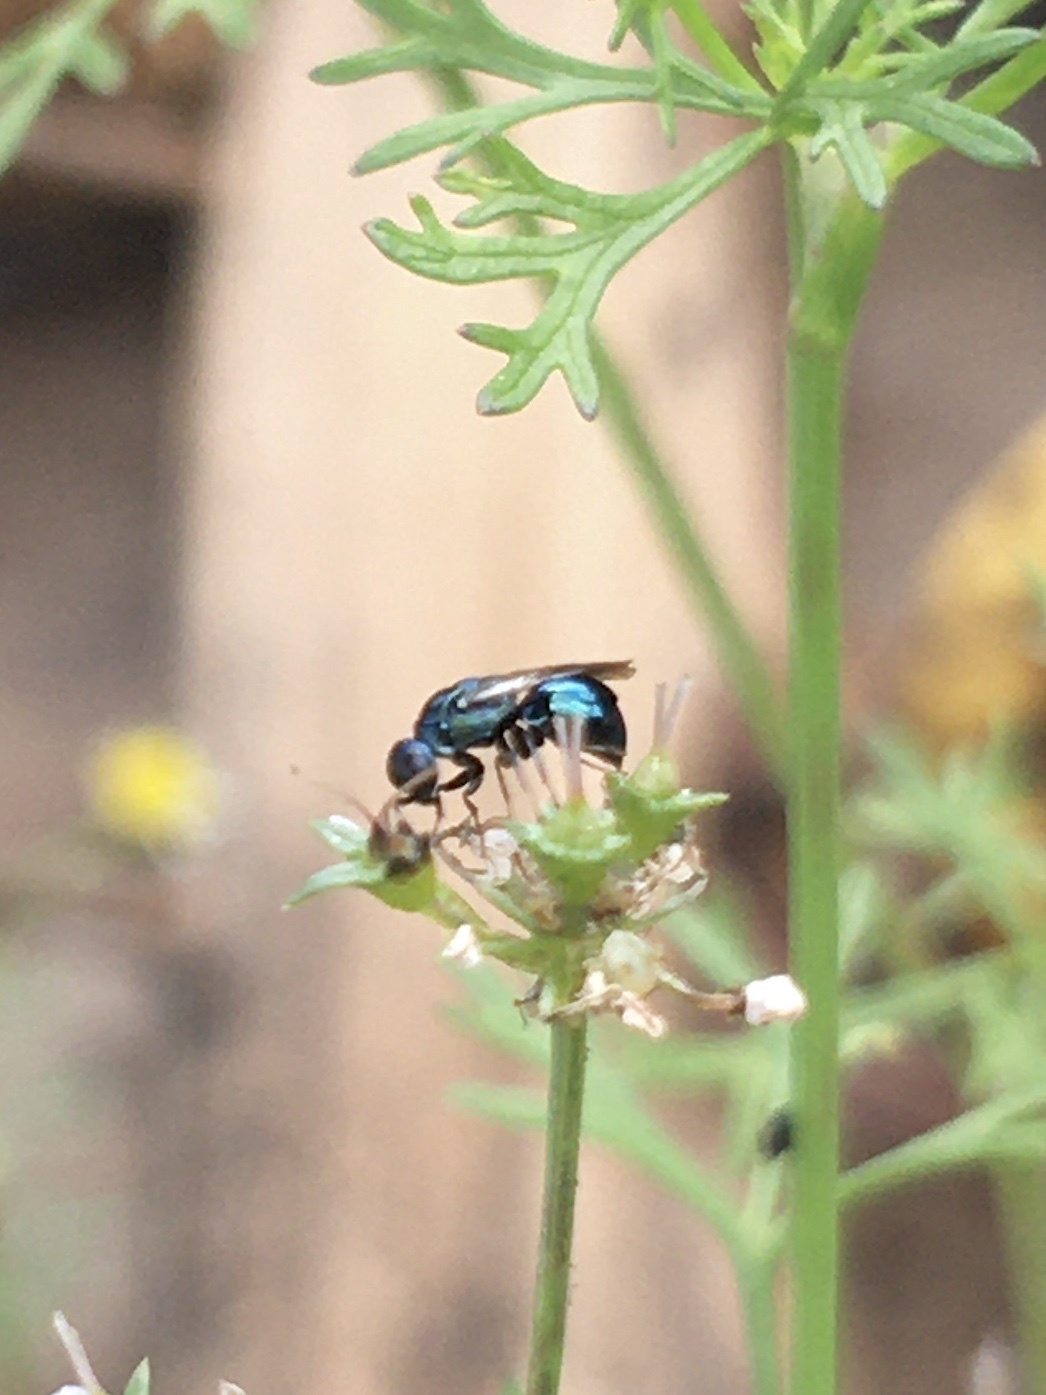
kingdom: Animalia
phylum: Arthropoda
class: Insecta
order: Hymenoptera
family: Chrysididae
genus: Holophris
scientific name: Holophris
